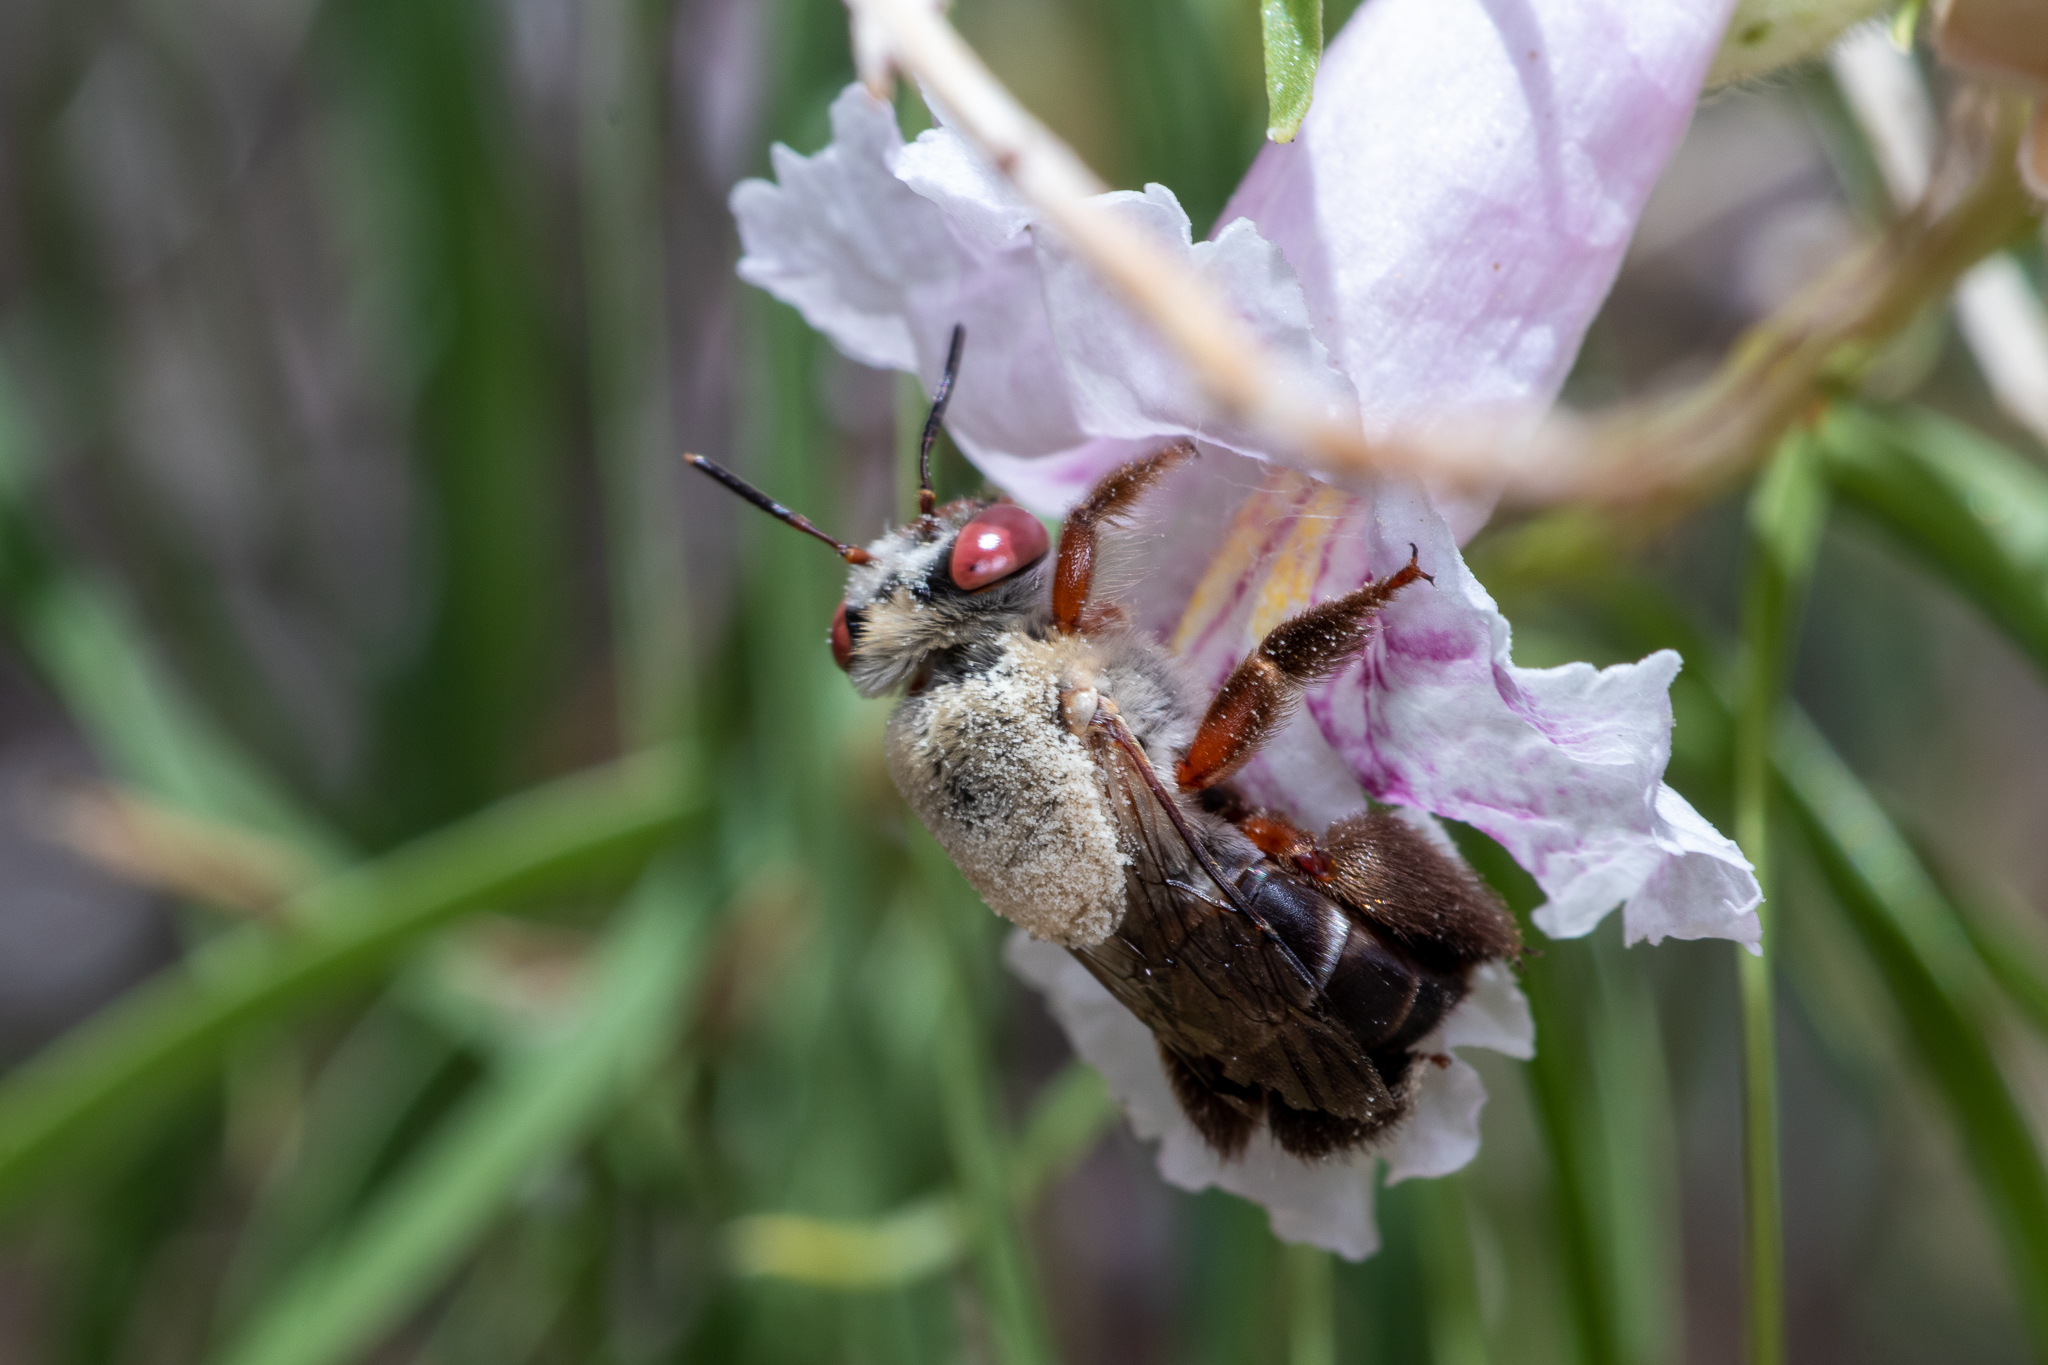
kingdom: Animalia
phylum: Arthropoda
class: Insecta
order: Hymenoptera
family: Apidae
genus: Centris
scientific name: Centris rhodopus
